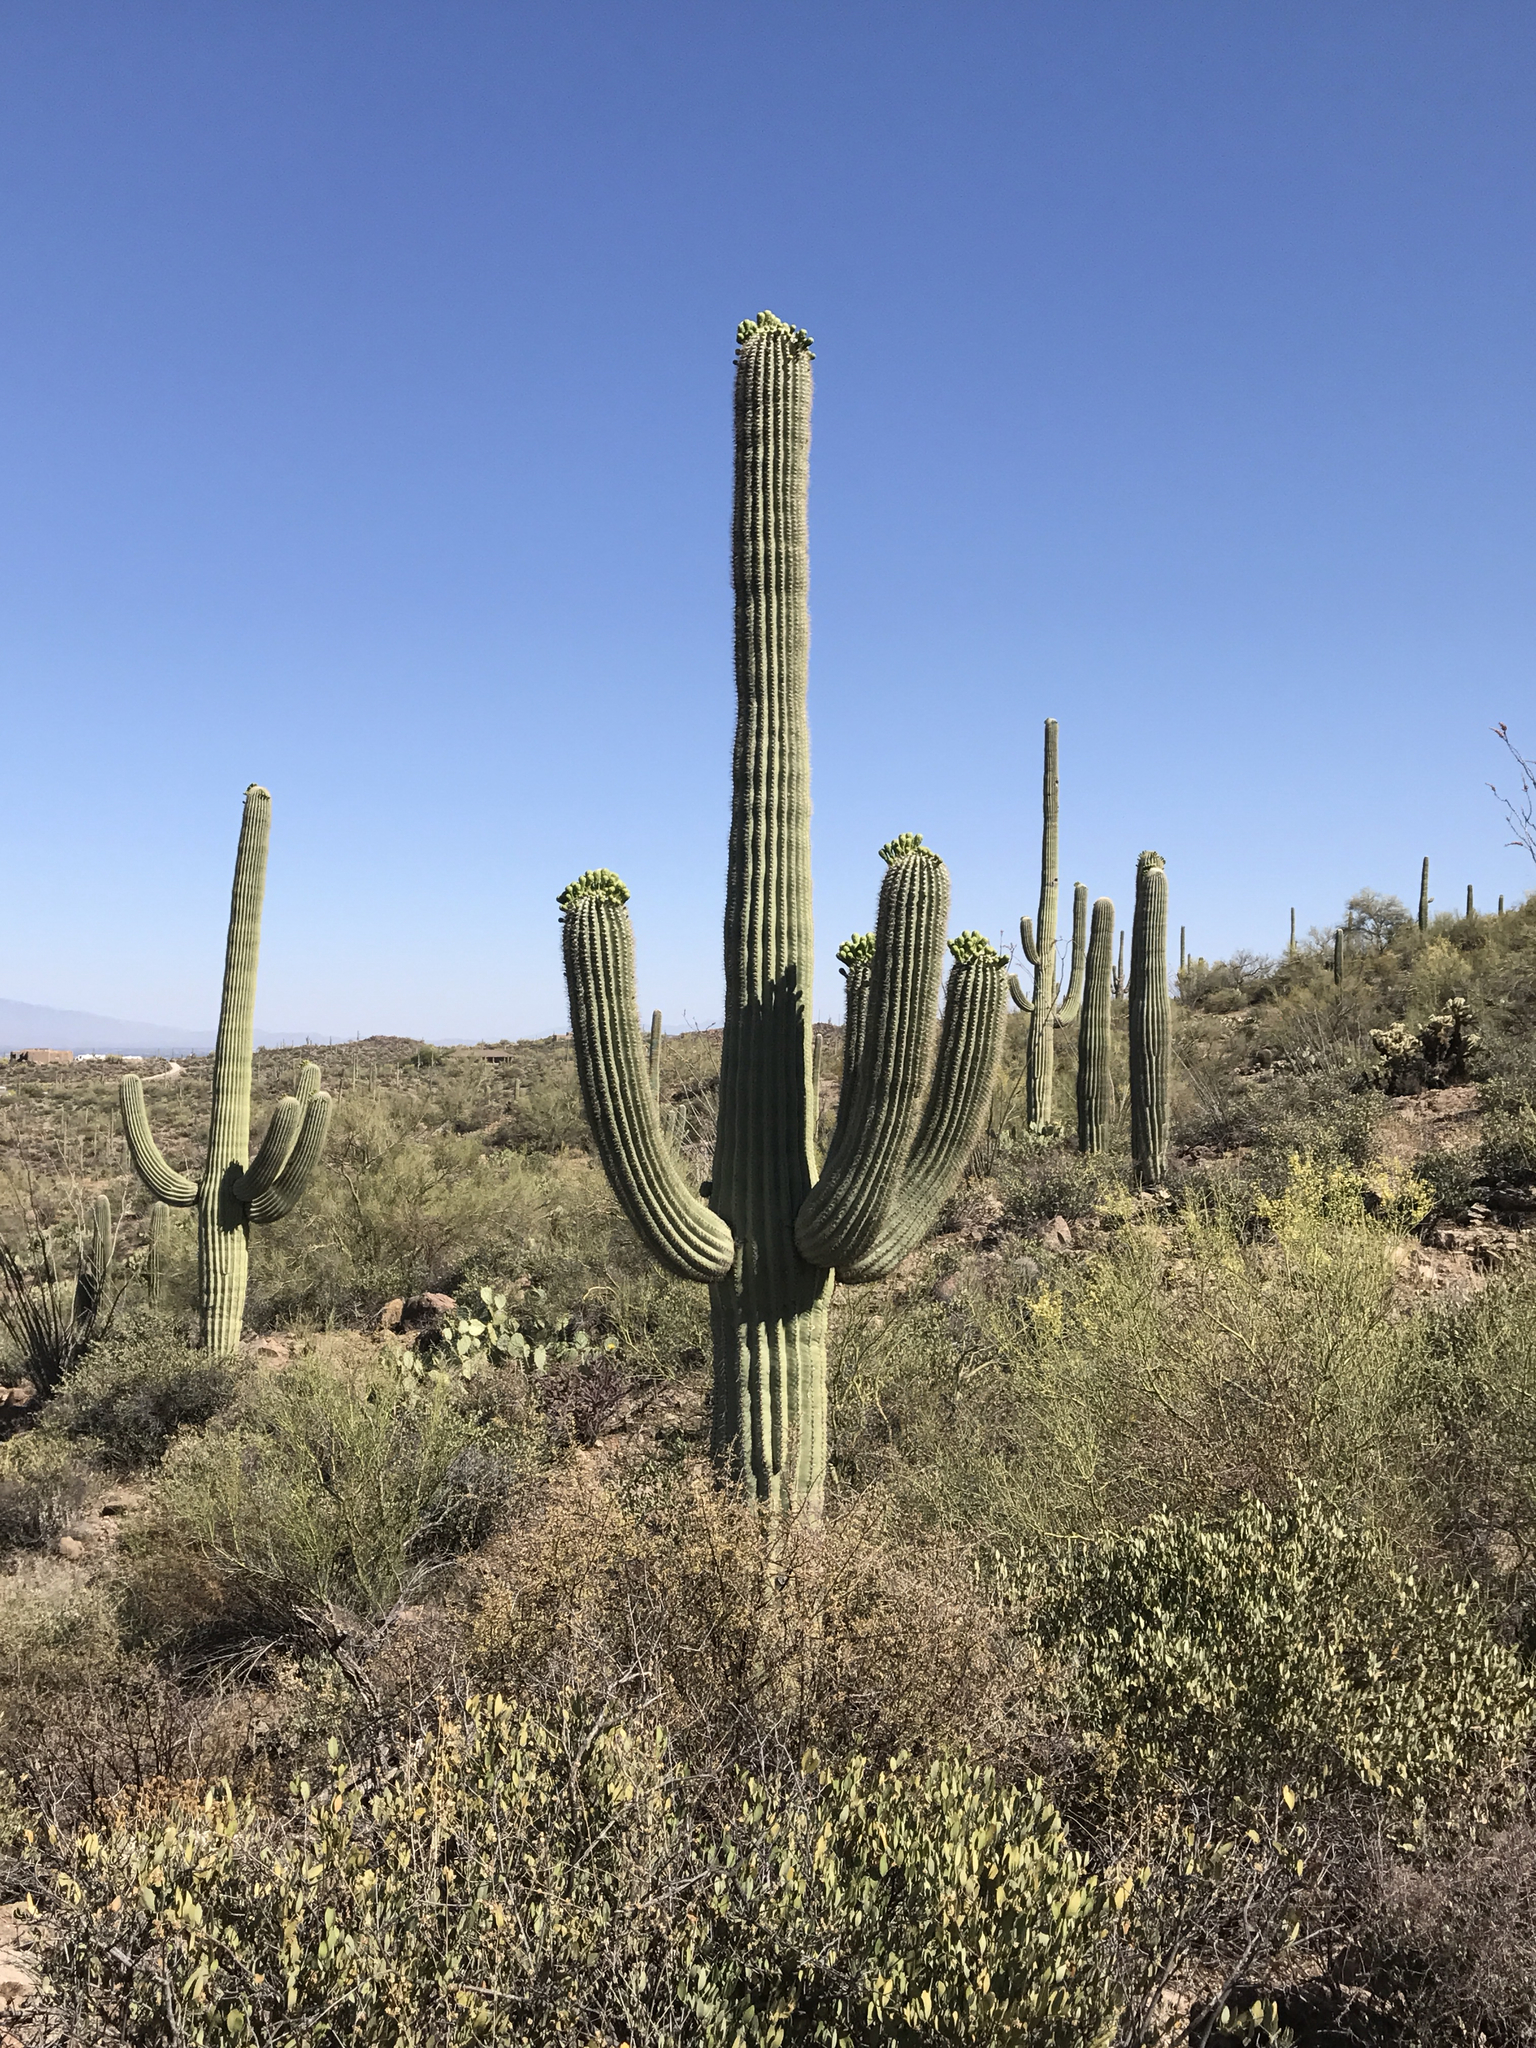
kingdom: Plantae
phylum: Tracheophyta
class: Magnoliopsida
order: Caryophyllales
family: Cactaceae
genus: Carnegiea
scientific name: Carnegiea gigantea
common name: Saguaro
